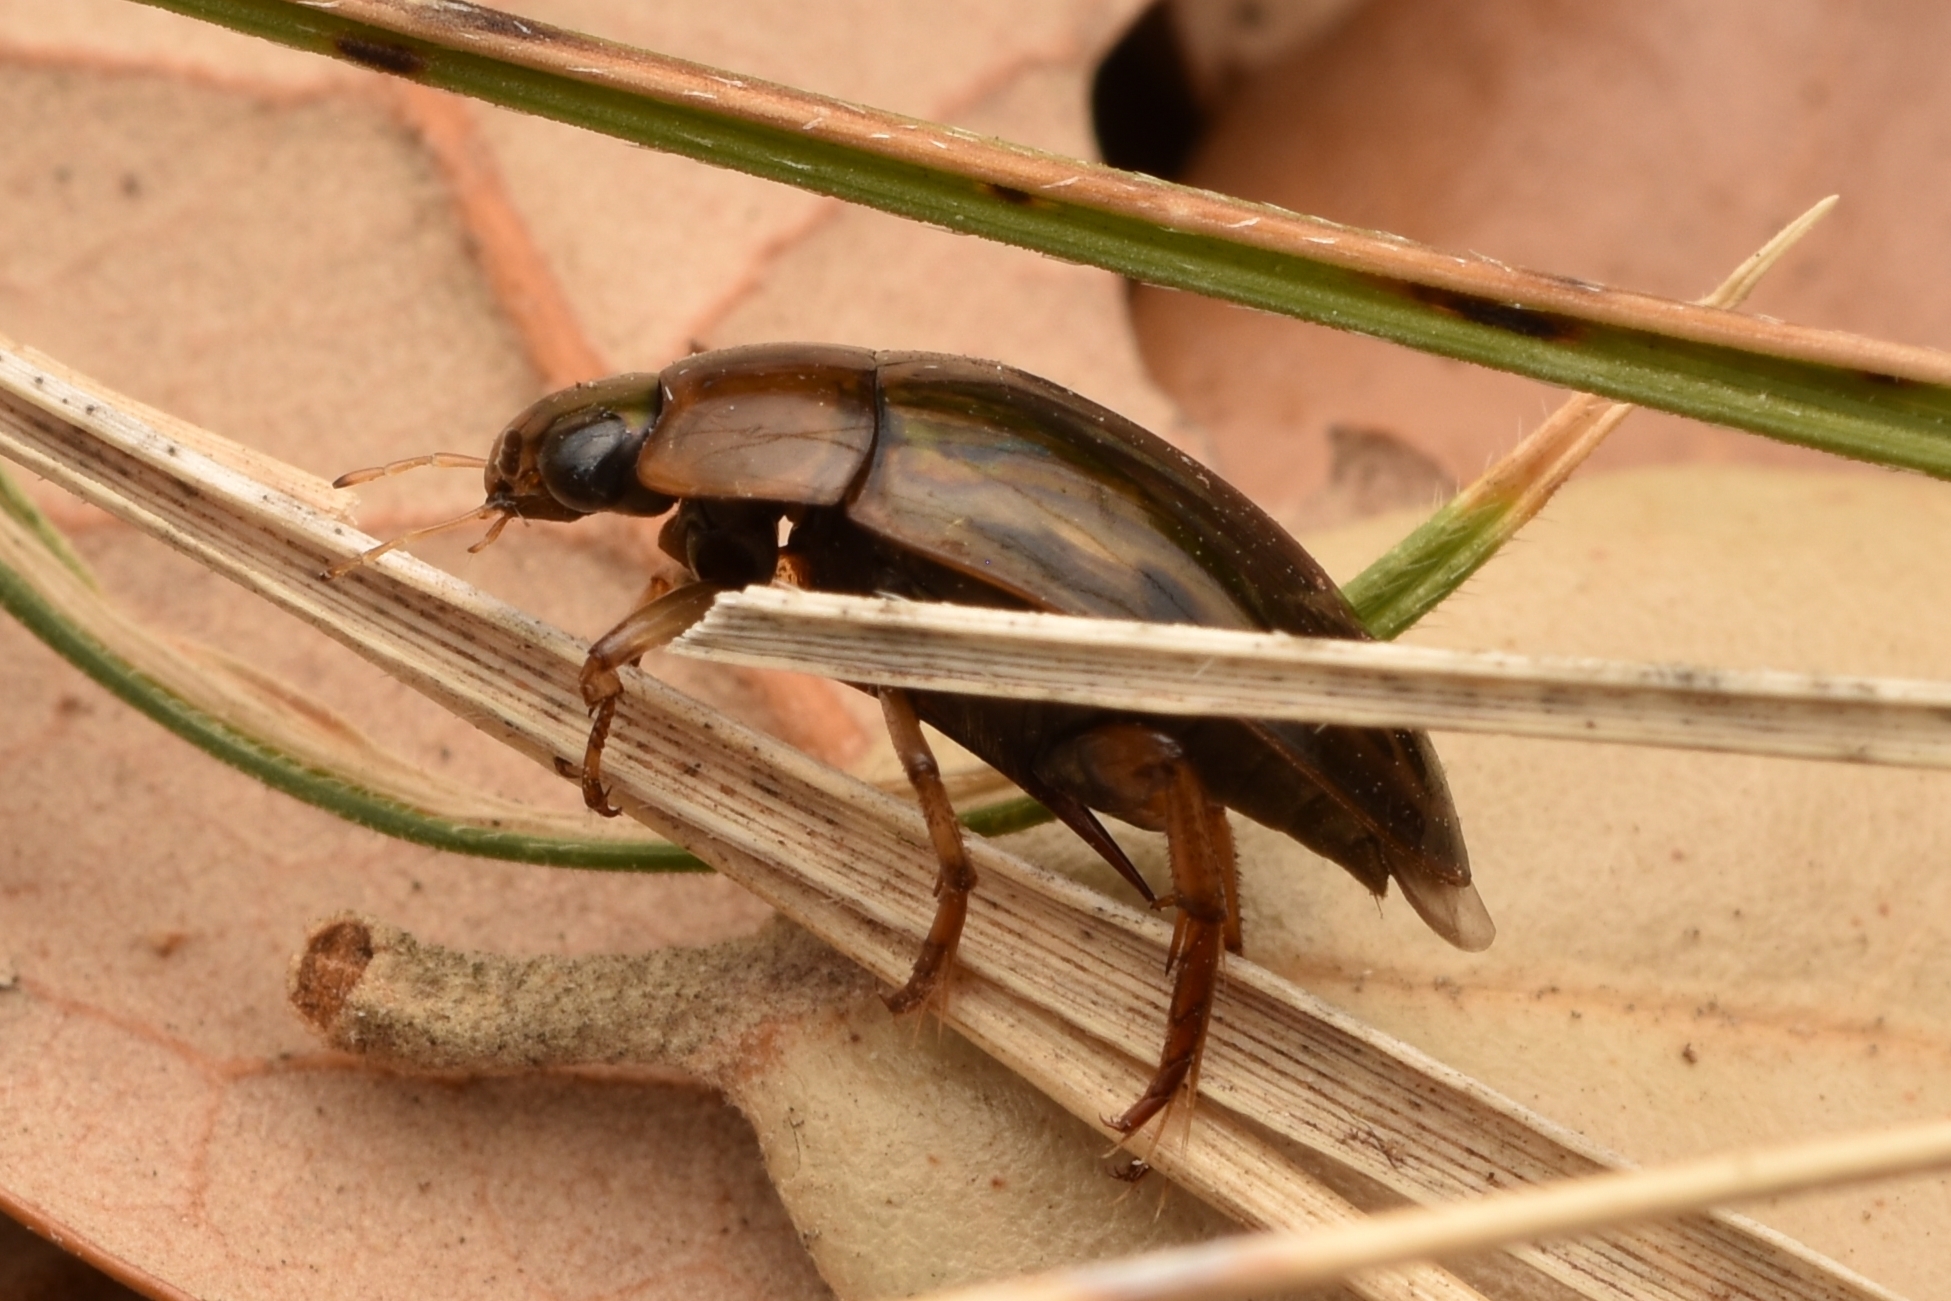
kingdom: Animalia
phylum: Arthropoda
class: Insecta
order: Coleoptera
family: Hydrophilidae
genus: Tropisternus
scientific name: Tropisternus collaris
